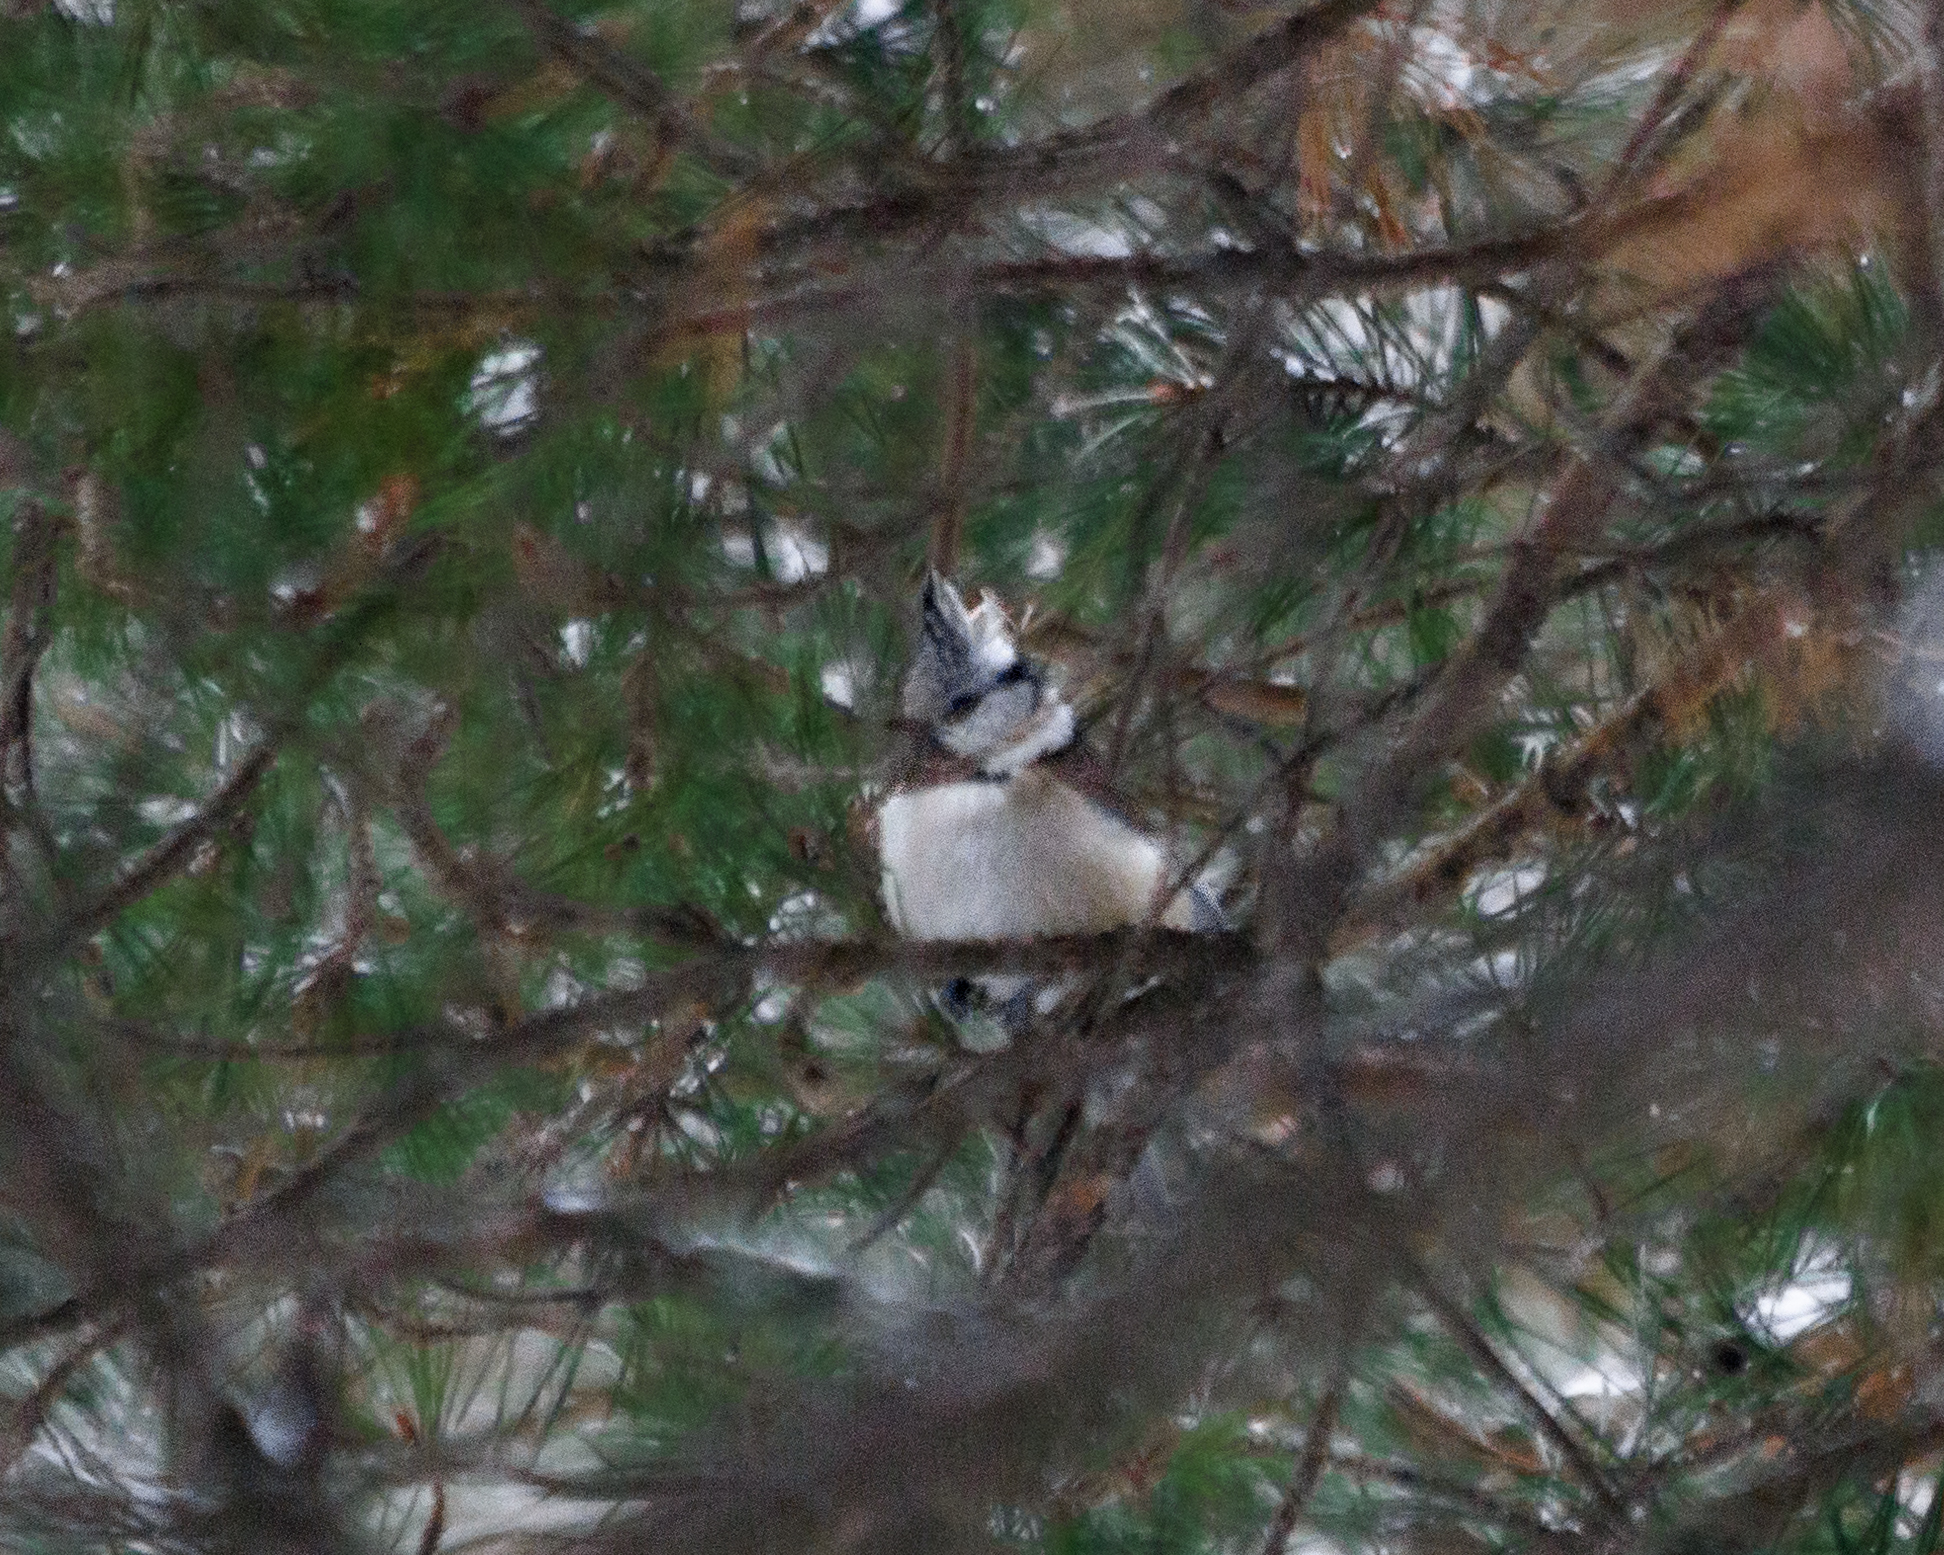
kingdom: Animalia
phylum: Chordata
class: Aves
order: Passeriformes
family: Paridae
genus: Lophophanes
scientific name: Lophophanes cristatus
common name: European crested tit
